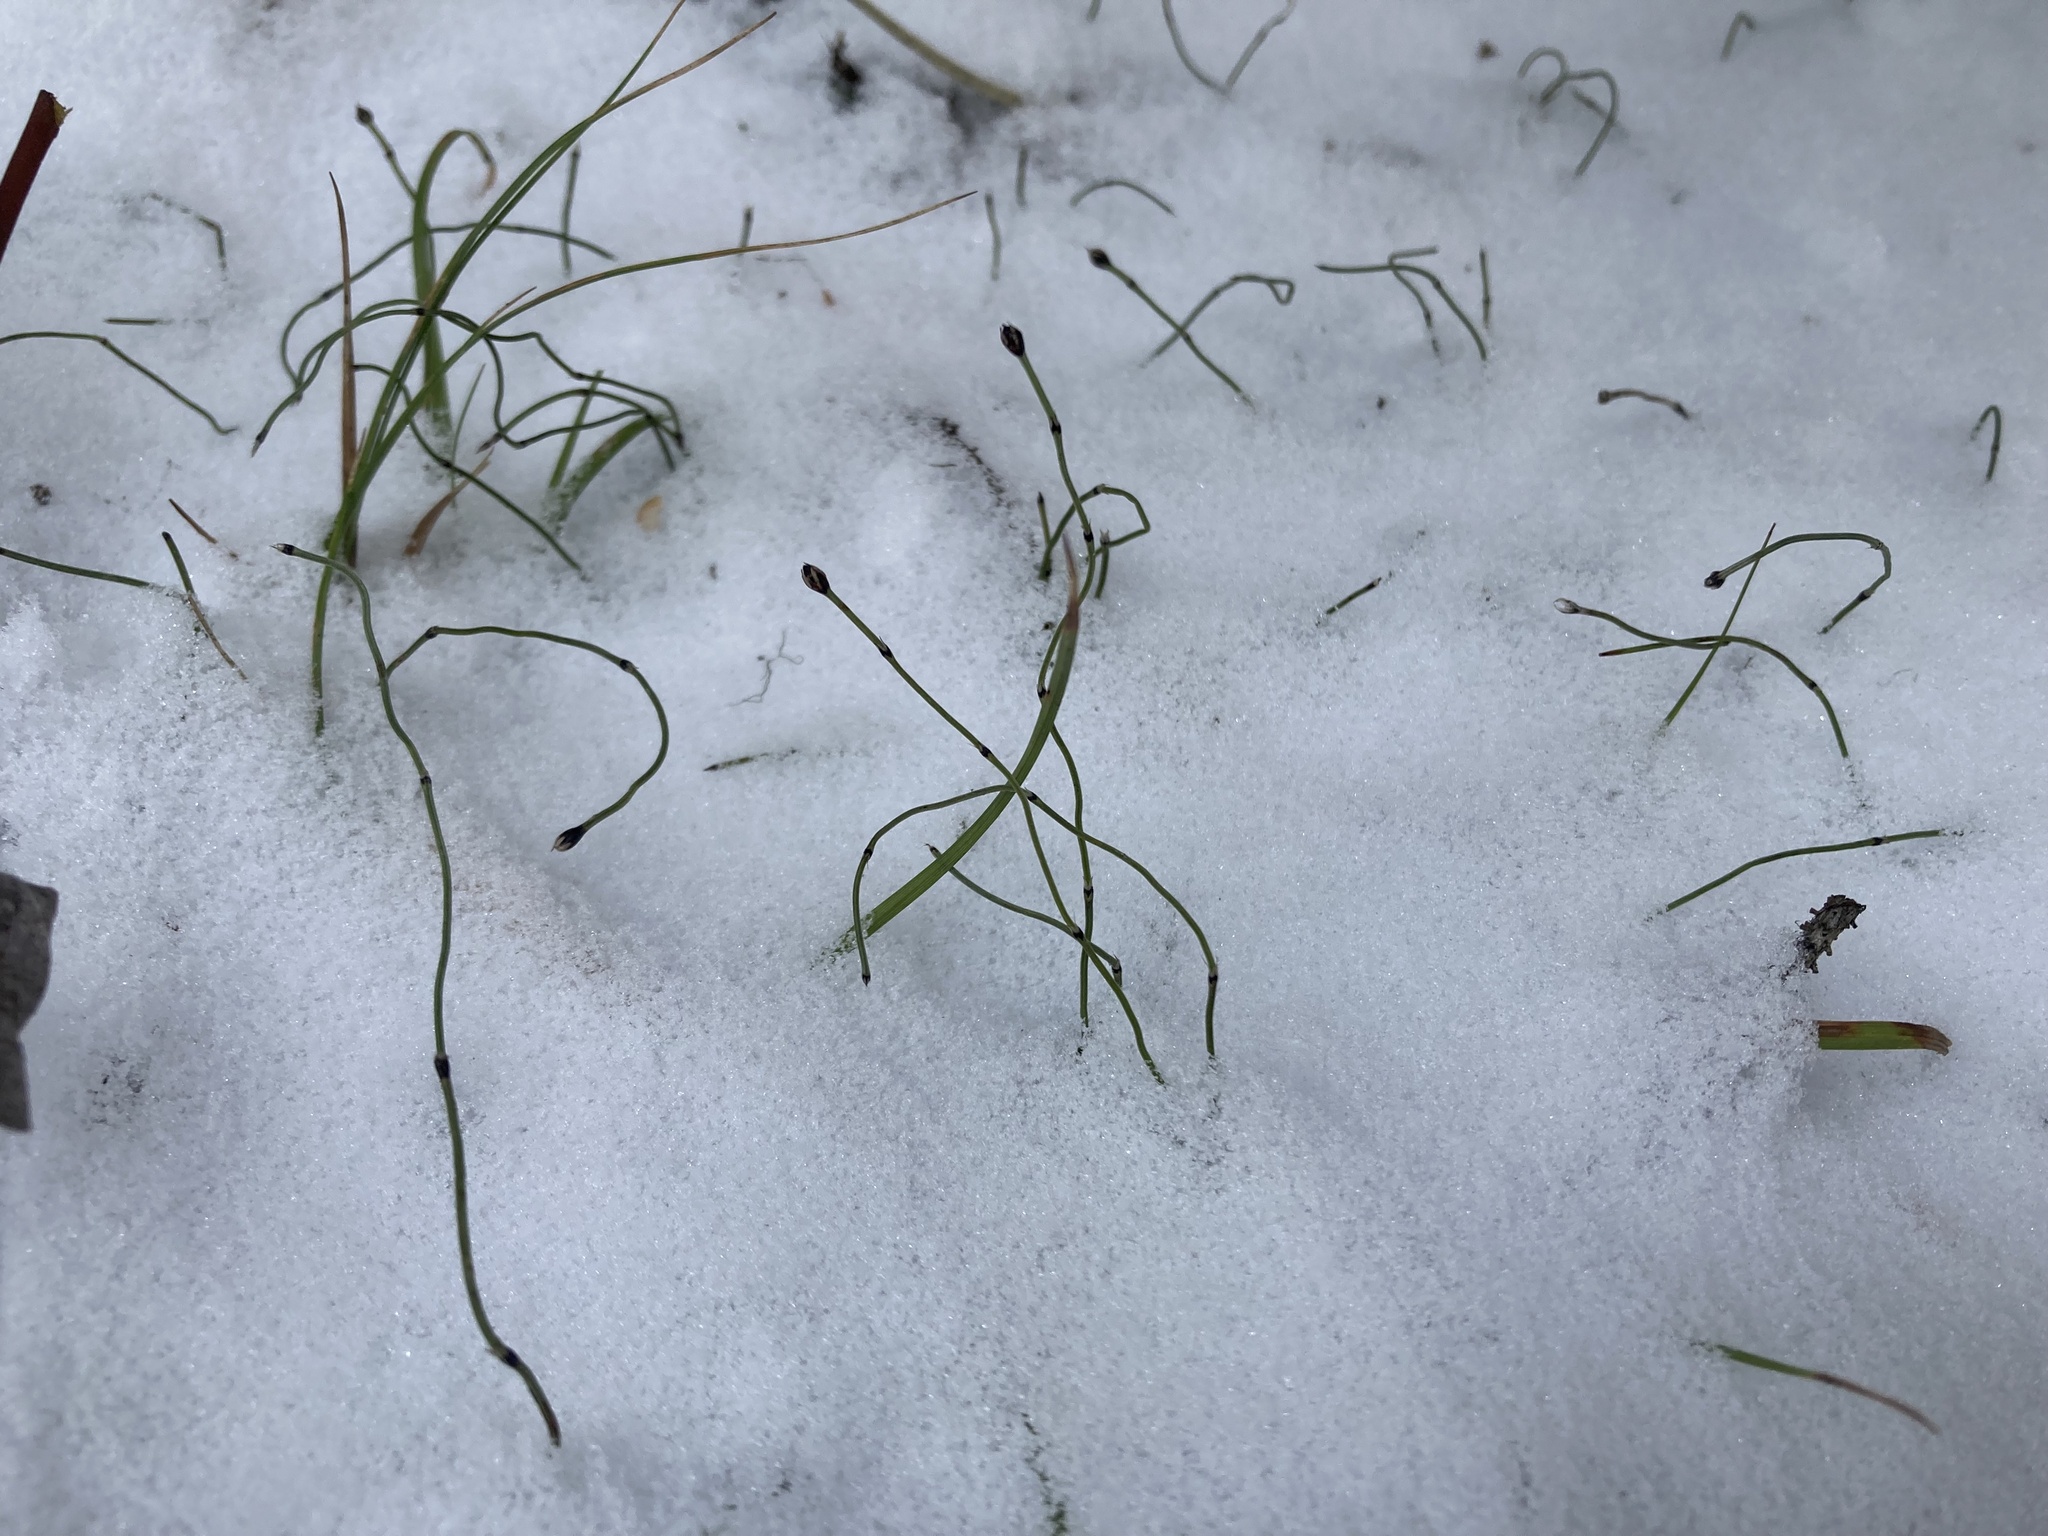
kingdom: Plantae
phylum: Tracheophyta
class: Polypodiopsida
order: Equisetales
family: Equisetaceae
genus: Equisetum
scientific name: Equisetum scirpoides
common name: Delicate horsetail
